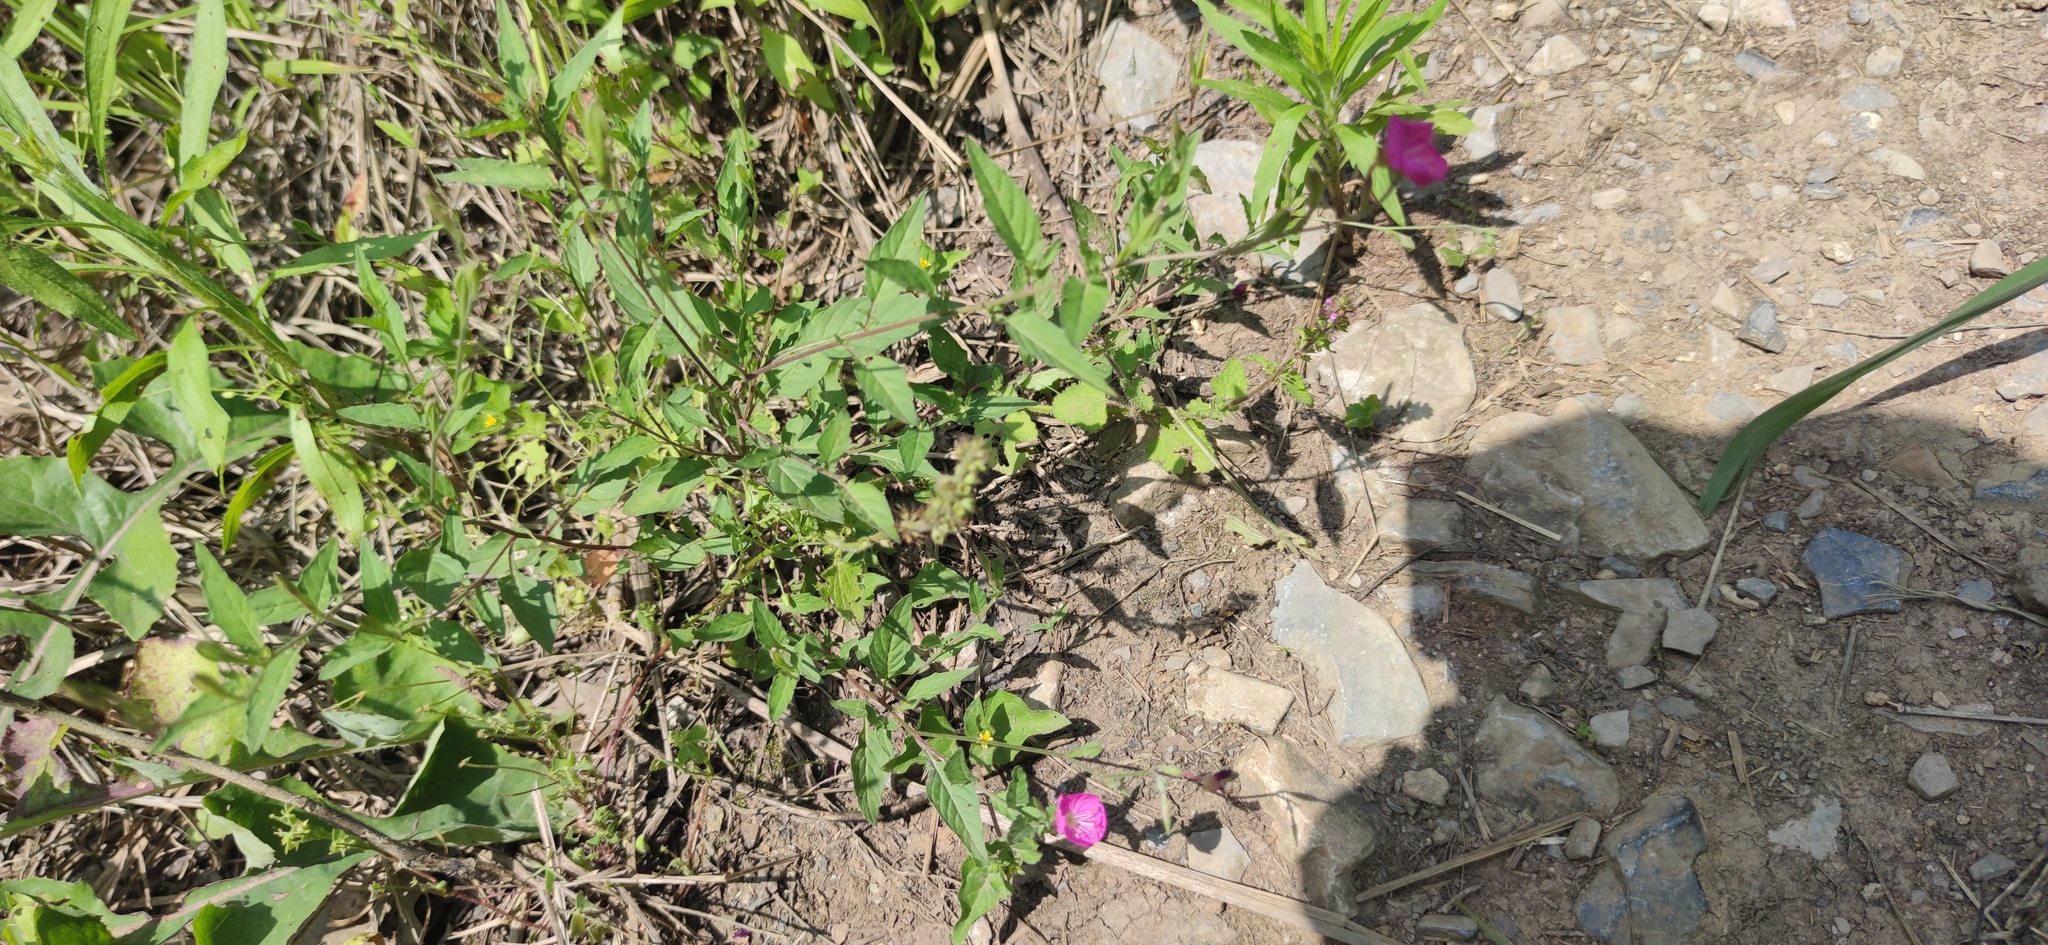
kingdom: Plantae
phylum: Tracheophyta
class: Magnoliopsida
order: Myrtales
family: Onagraceae
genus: Oenothera
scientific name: Oenothera rosea
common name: Rosy evening-primrose
